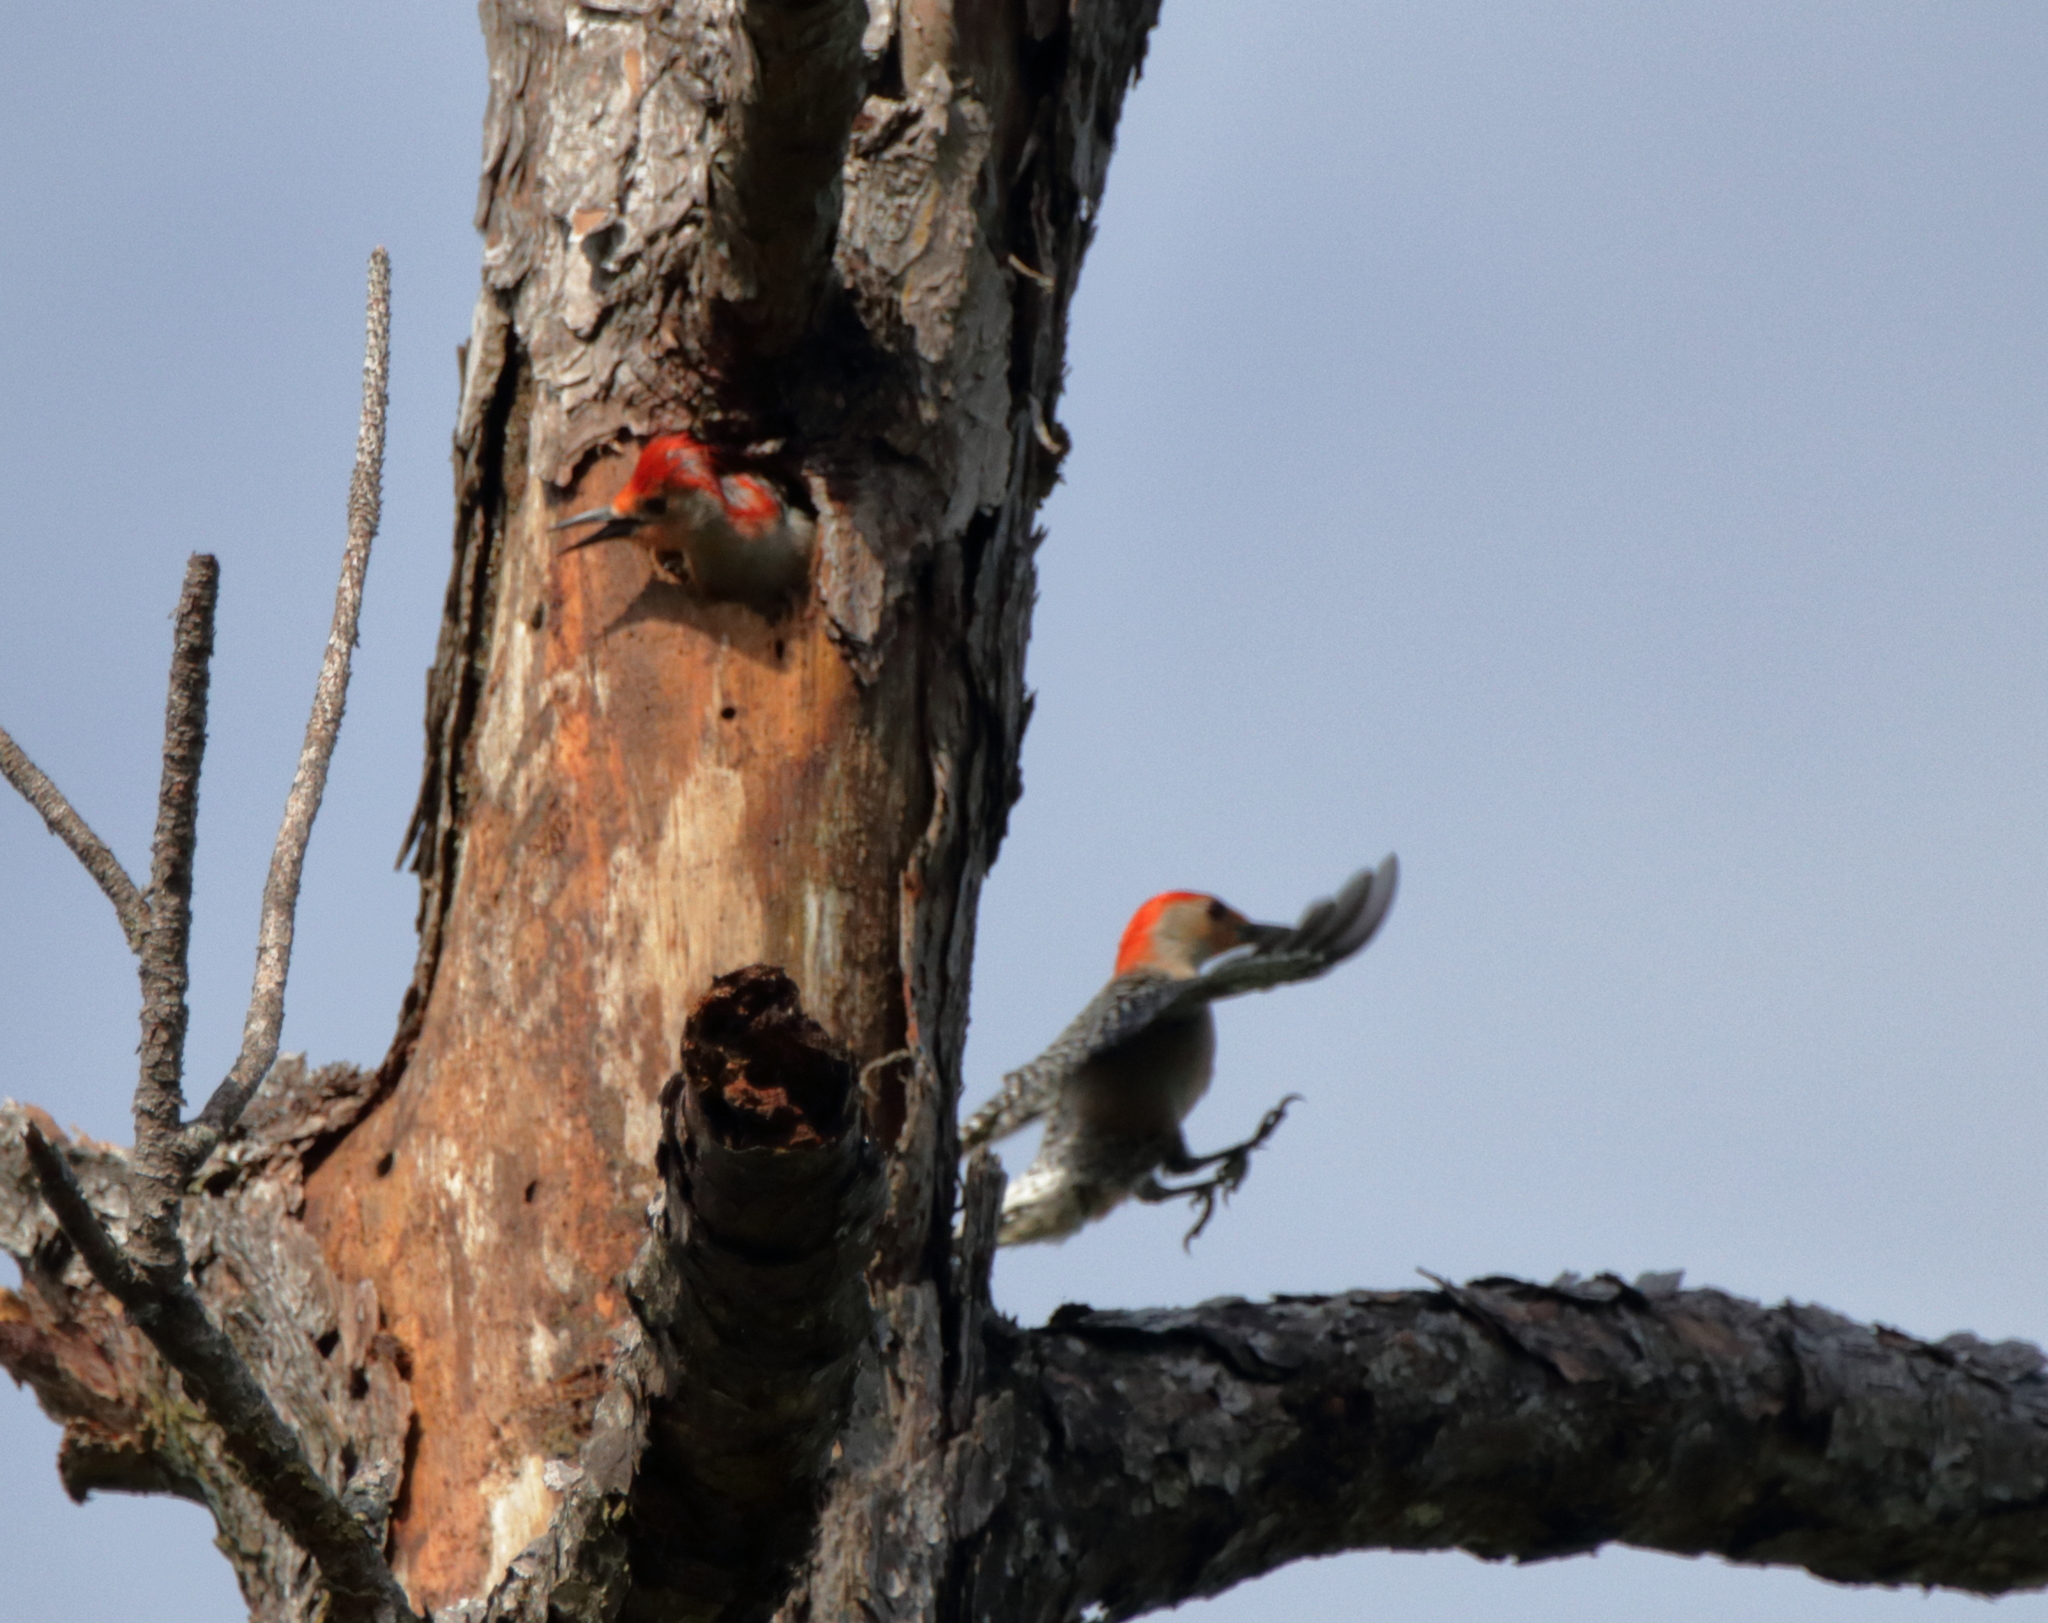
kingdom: Animalia
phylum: Chordata
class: Aves
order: Piciformes
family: Picidae
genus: Melanerpes
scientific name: Melanerpes carolinus
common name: Red-bellied woodpecker
